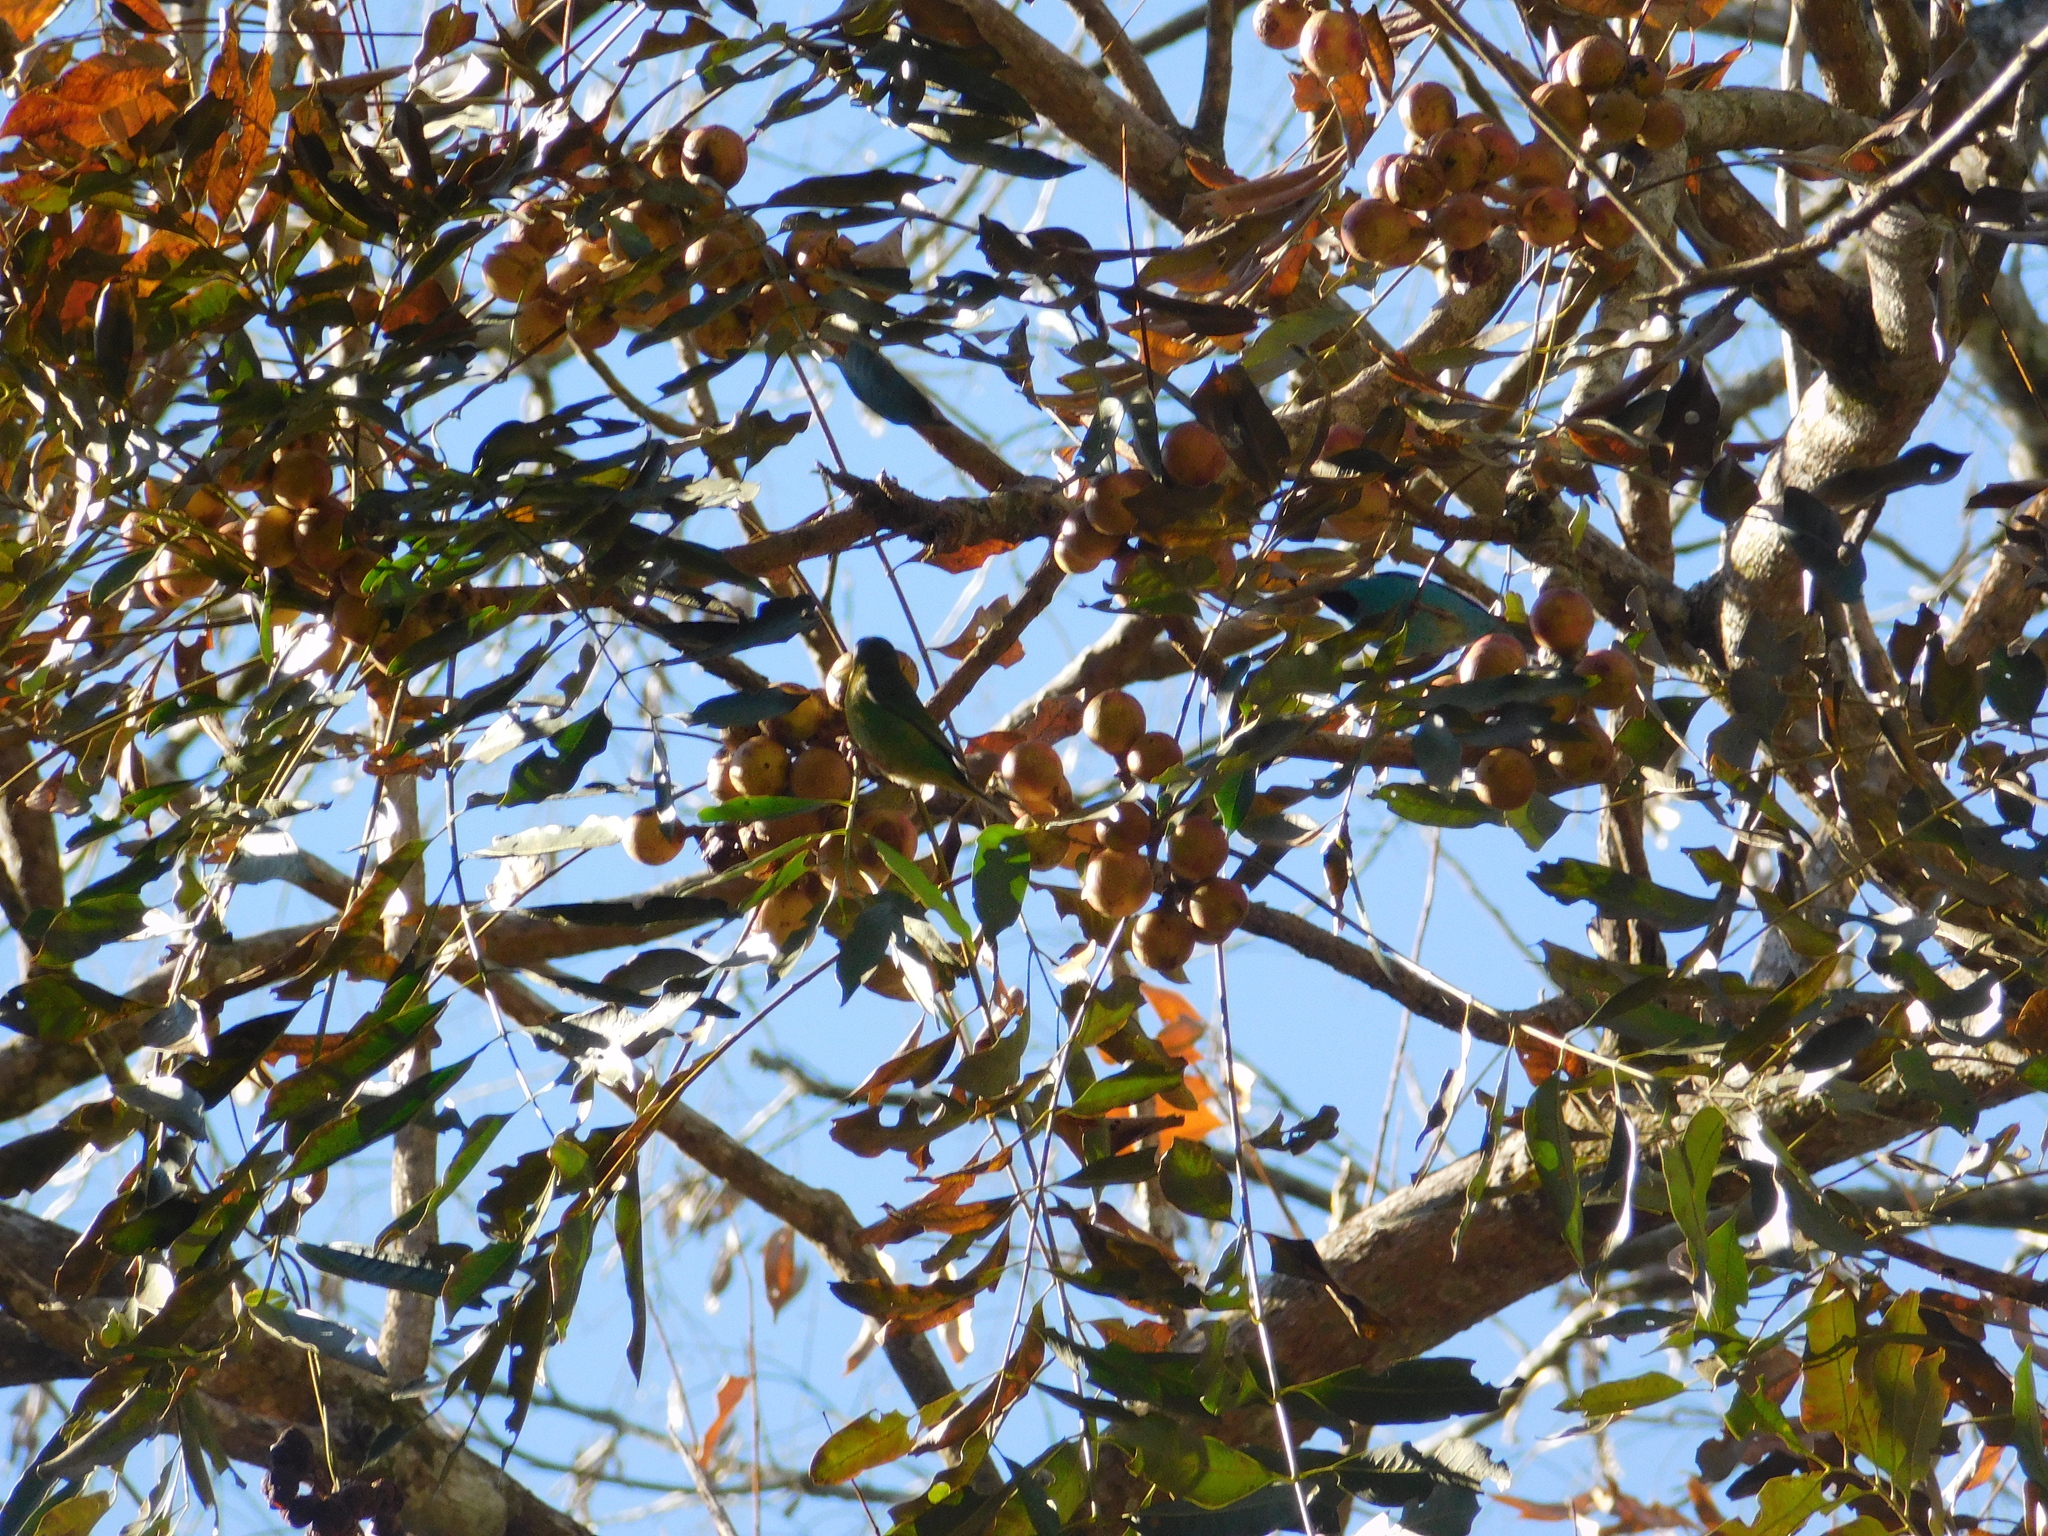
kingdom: Animalia
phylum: Chordata
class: Aves
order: Passeriformes
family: Thraupidae
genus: Dacnis
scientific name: Dacnis cayana
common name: Blue dacnis
